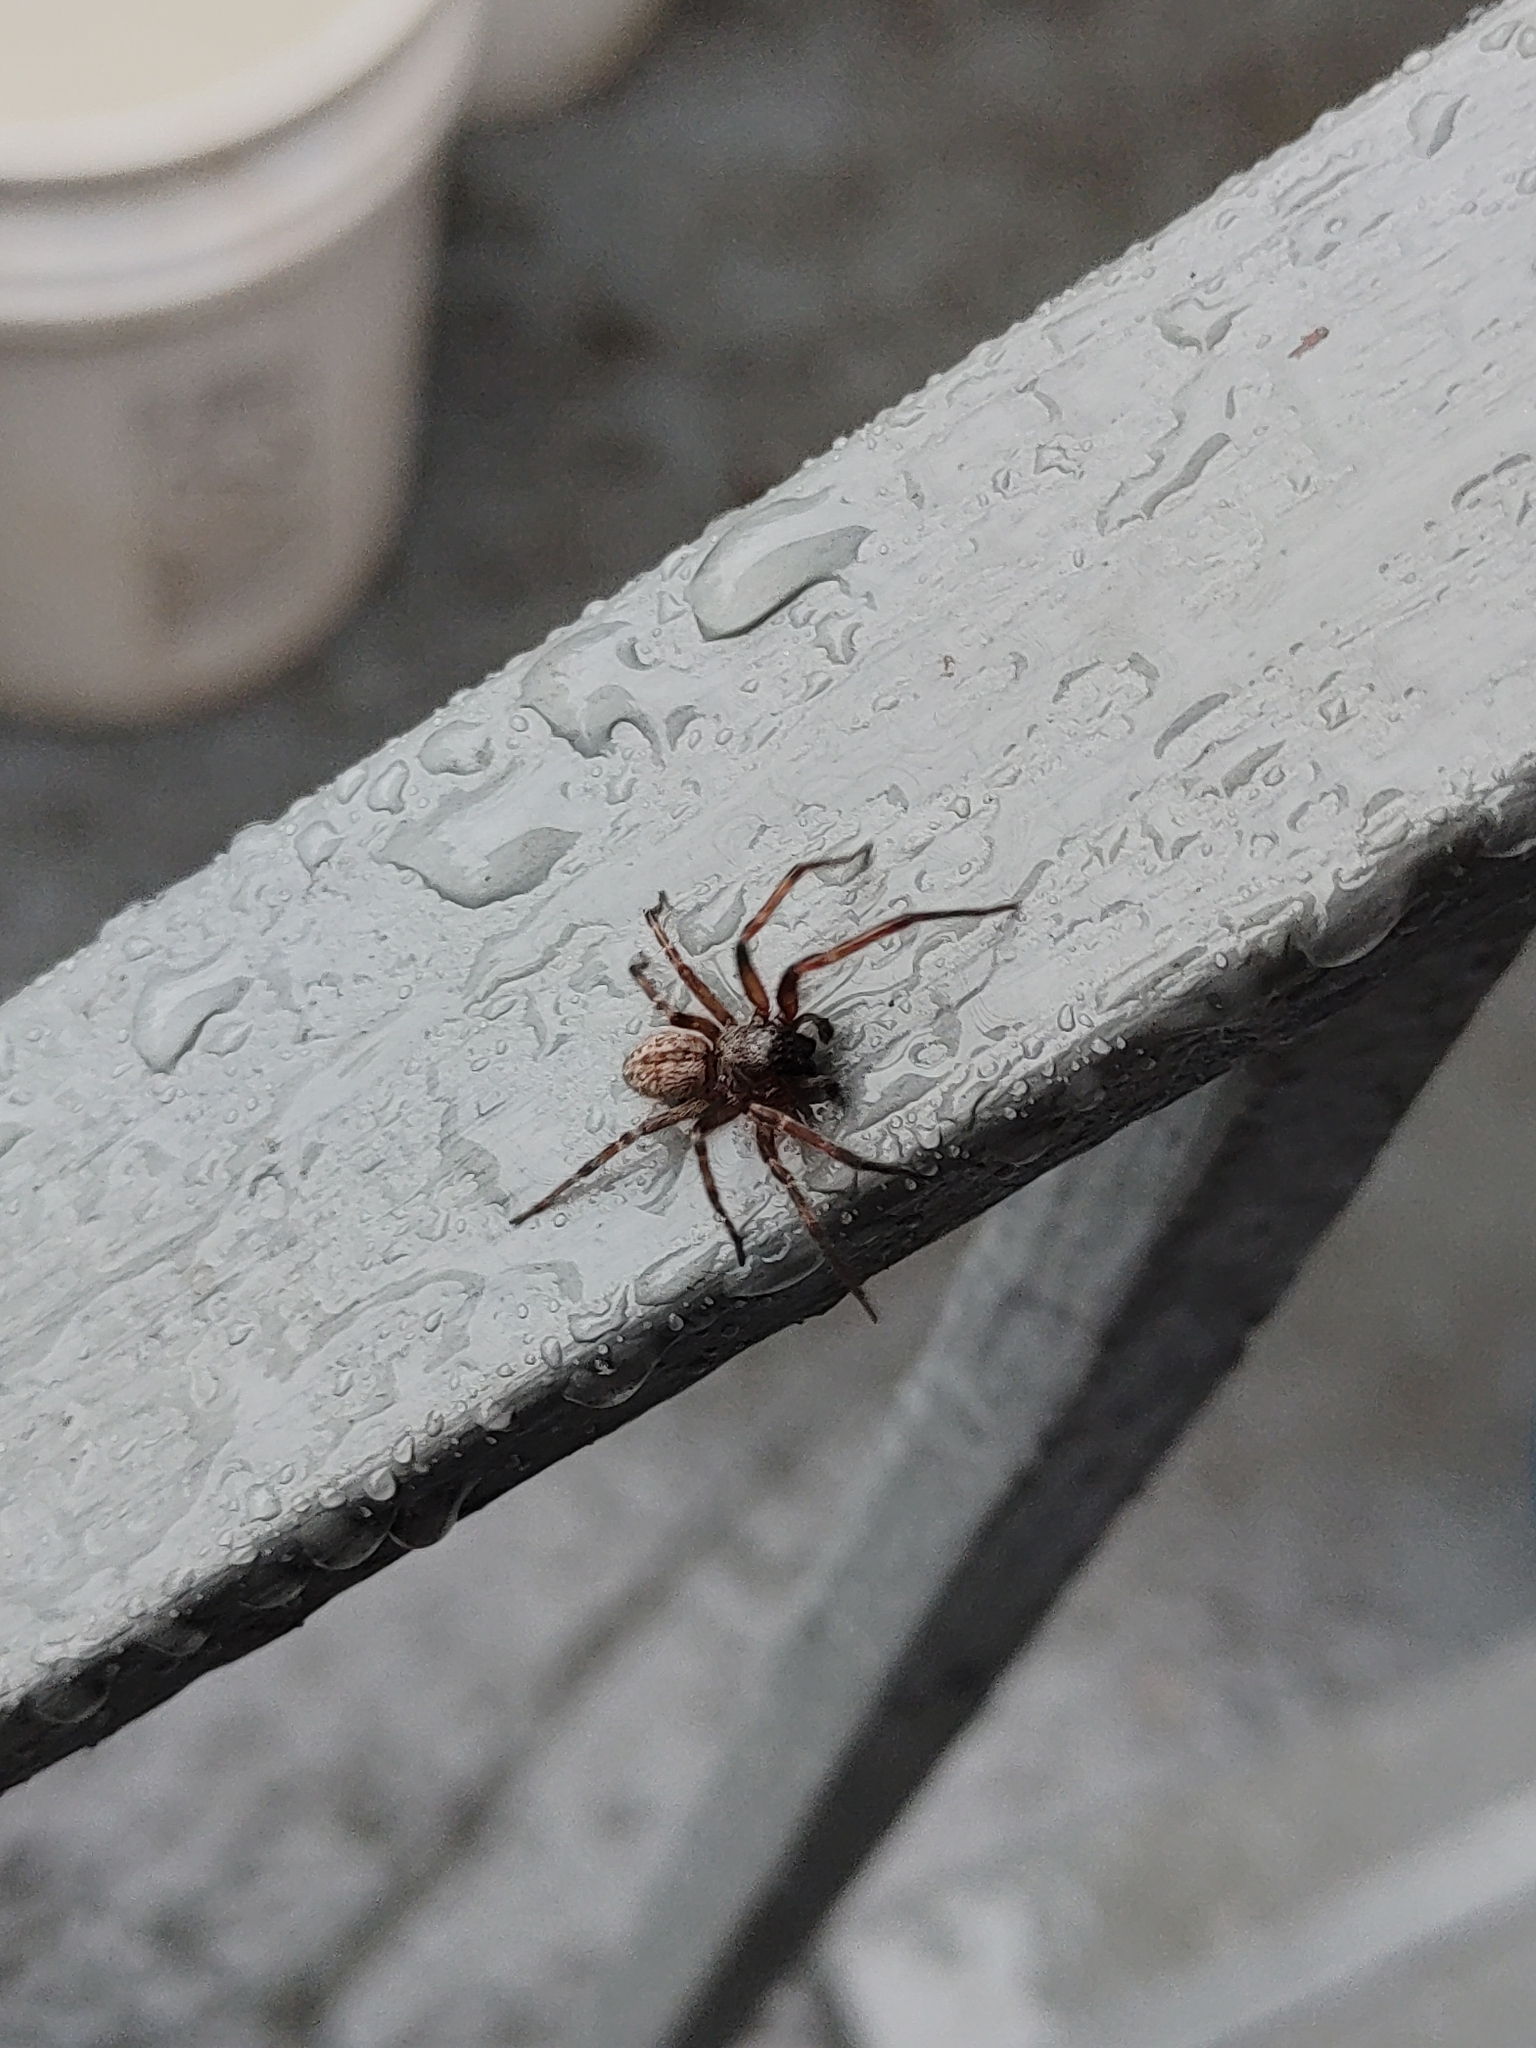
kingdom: Animalia
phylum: Arthropoda
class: Arachnida
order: Araneae
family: Desidae
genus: Badumna
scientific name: Badumna longinqua
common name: Gray house spider
